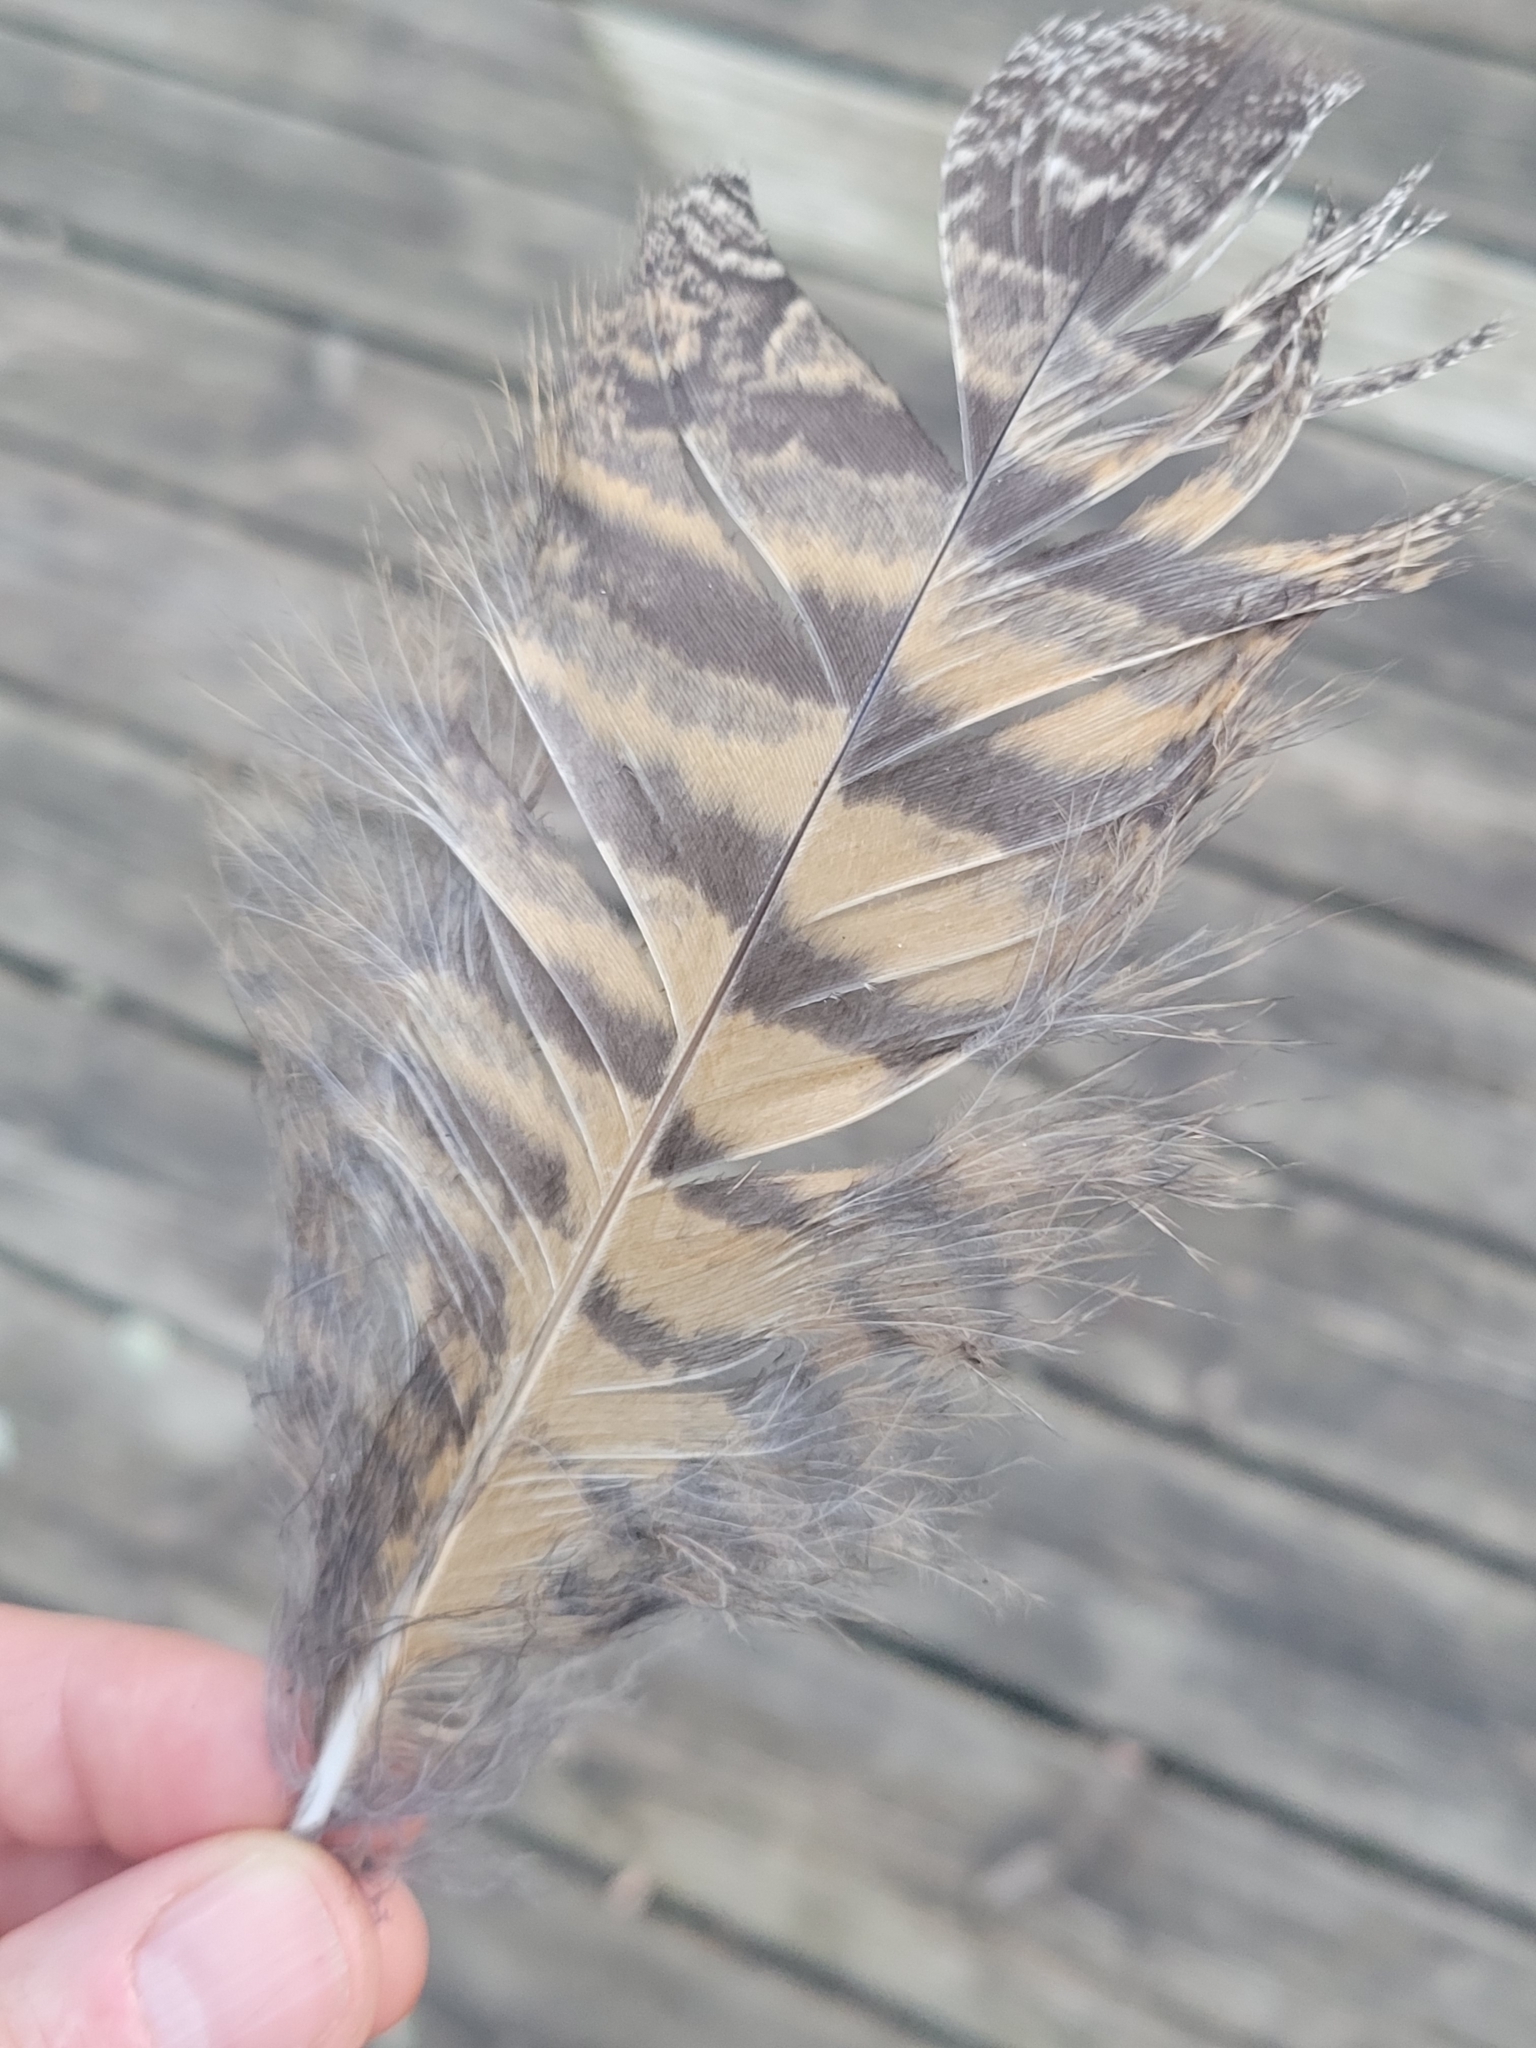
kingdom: Animalia
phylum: Chordata
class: Aves
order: Strigiformes
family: Strigidae
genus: Bubo
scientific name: Bubo virginianus
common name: Great horned owl
